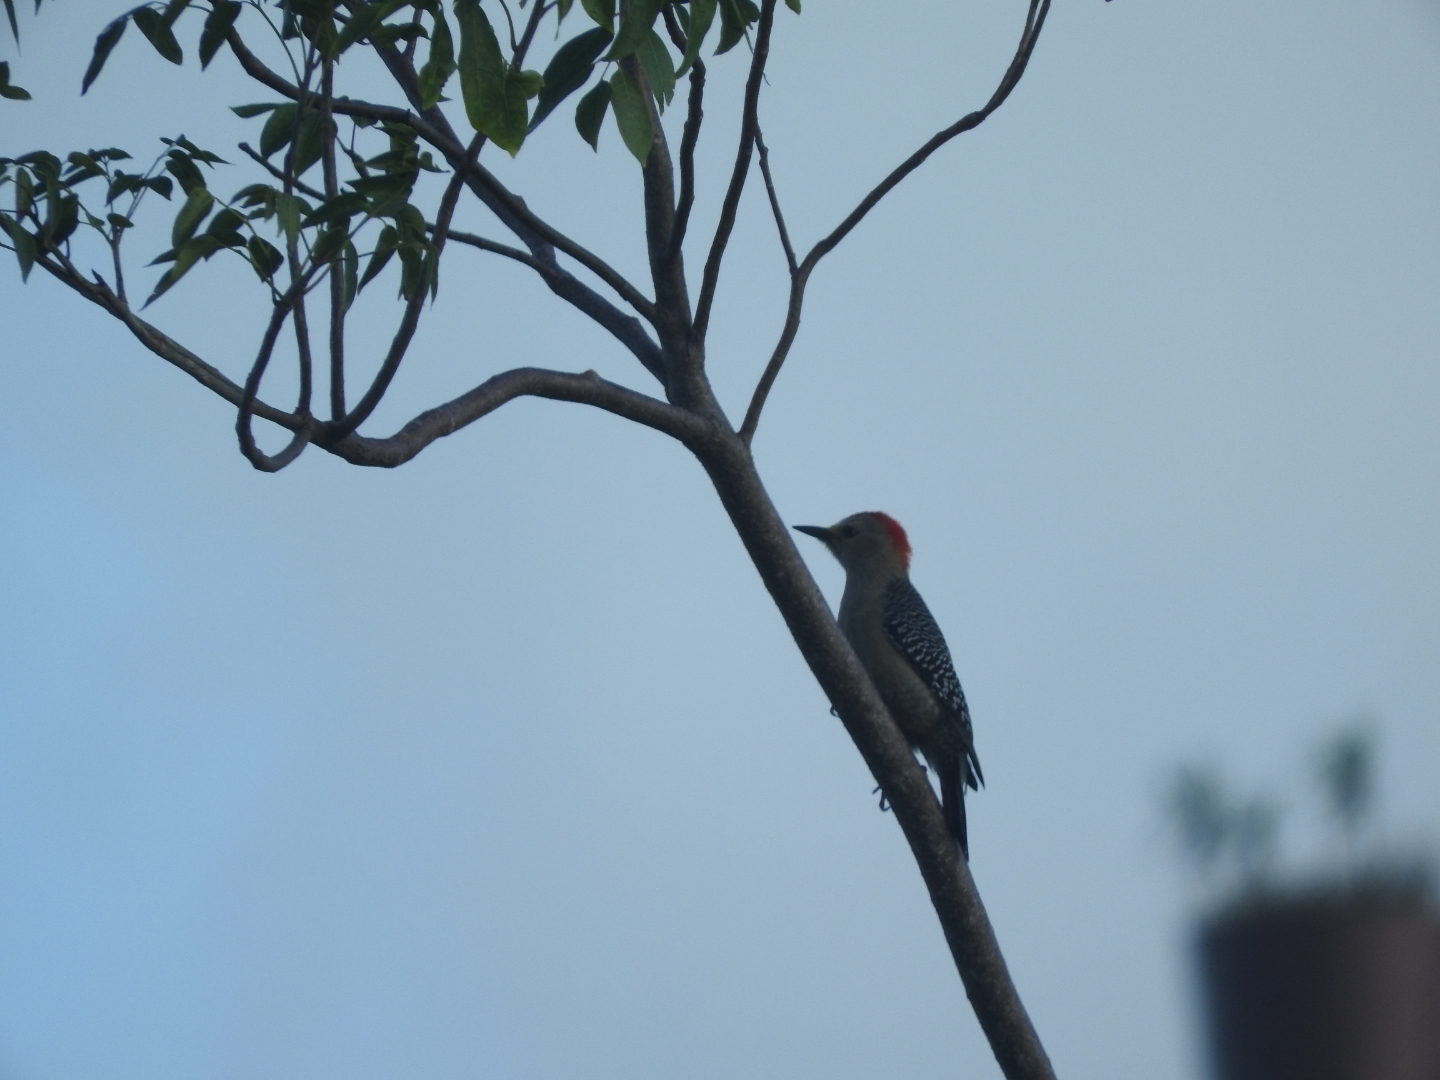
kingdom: Animalia
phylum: Chordata
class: Aves
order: Piciformes
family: Picidae
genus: Melanerpes
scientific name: Melanerpes pygmaeus
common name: Yucatan woodpecker
